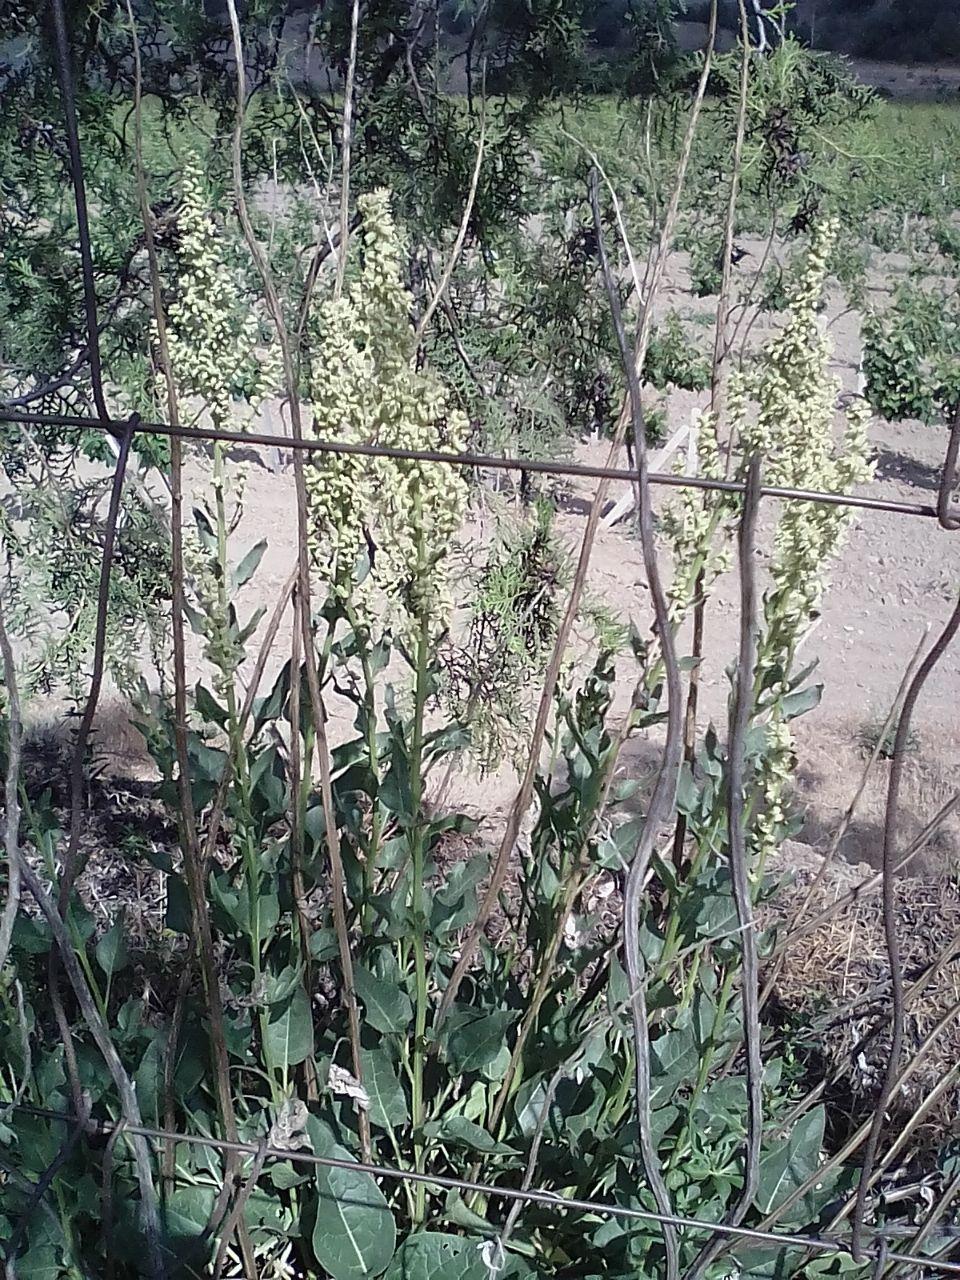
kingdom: Plantae
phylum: Tracheophyta
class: Magnoliopsida
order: Caryophyllales
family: Amaranthaceae
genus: Beta
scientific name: Beta trigyna
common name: Caucasian beet
